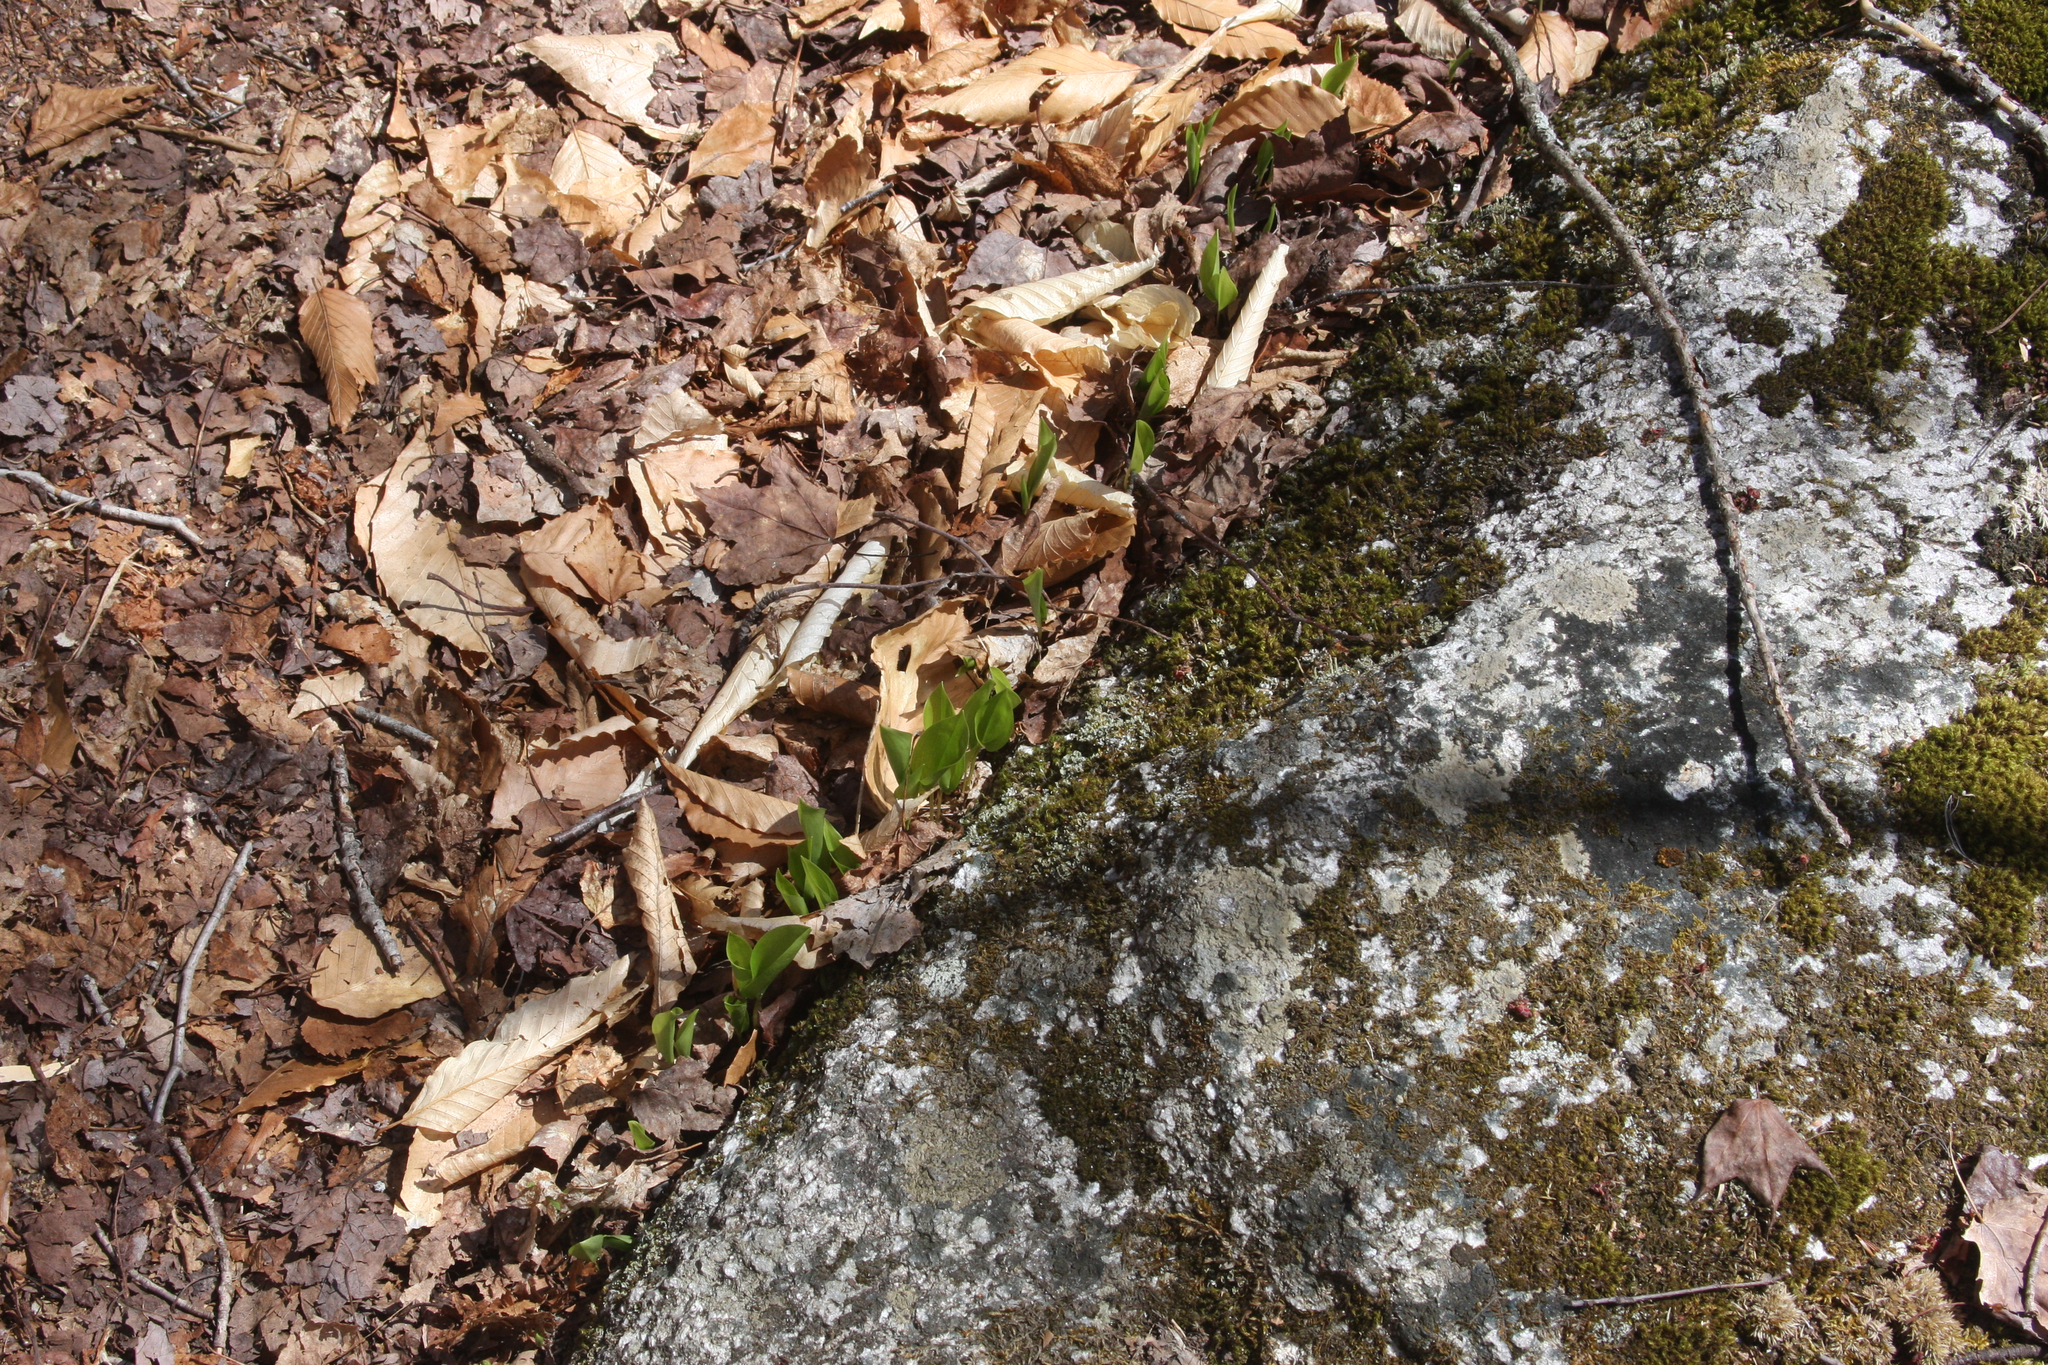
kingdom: Plantae
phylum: Tracheophyta
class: Liliopsida
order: Asparagales
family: Asparagaceae
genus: Maianthemum
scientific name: Maianthemum canadense
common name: False lily-of-the-valley
